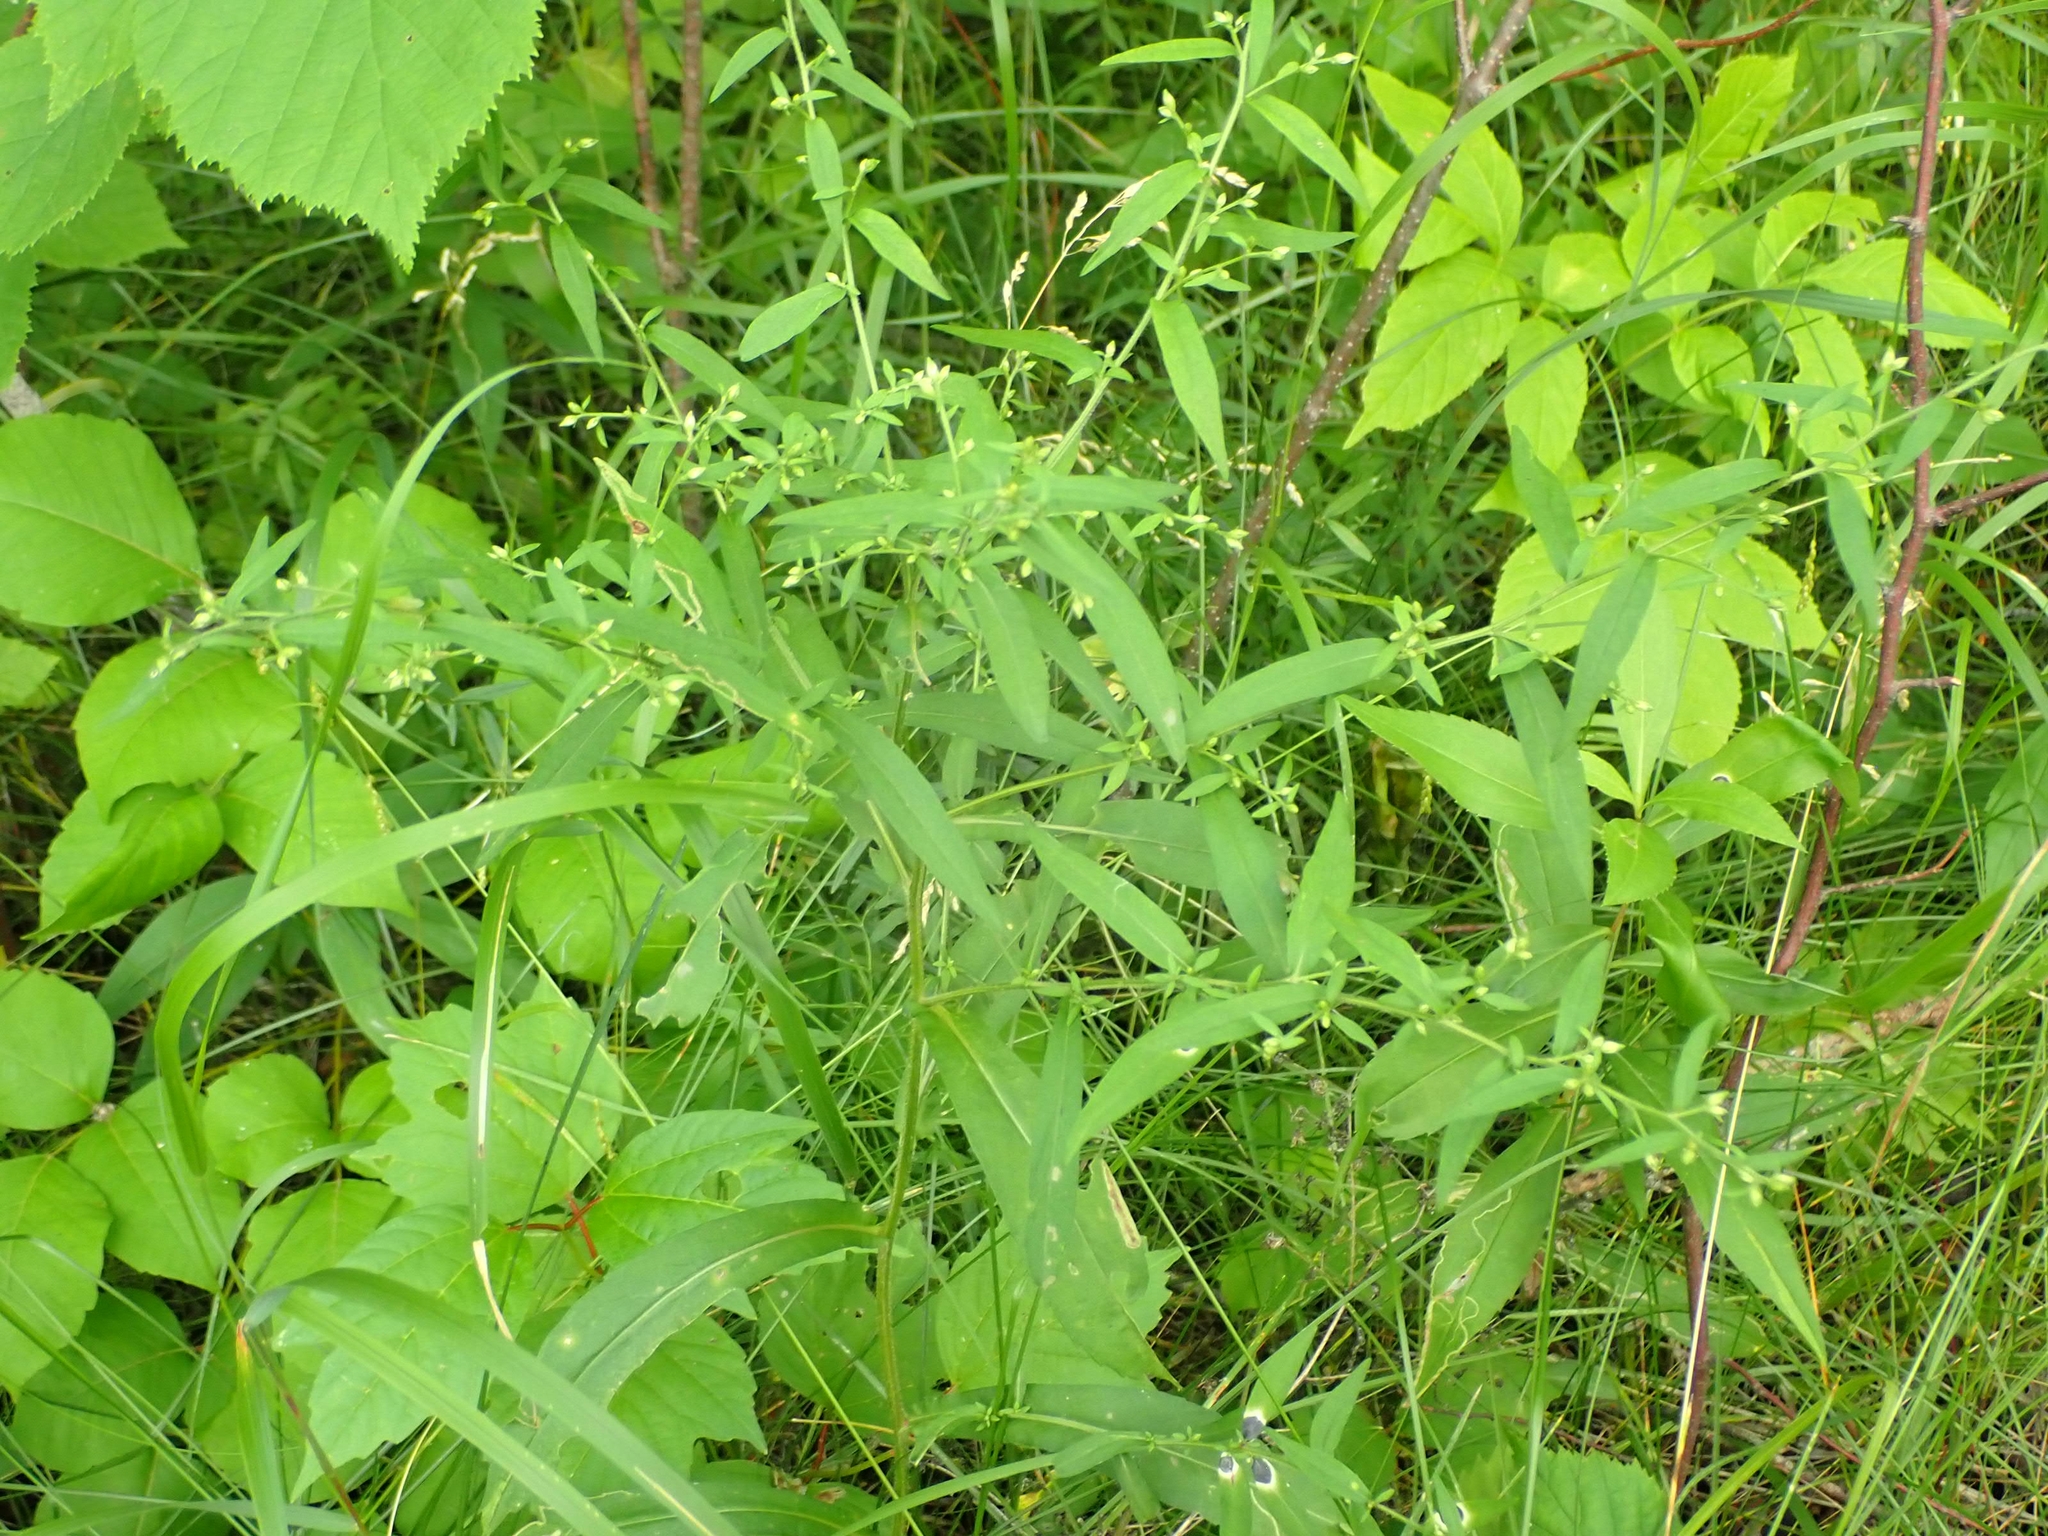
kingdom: Plantae
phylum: Tracheophyta
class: Magnoliopsida
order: Asterales
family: Asteraceae
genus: Symphyotrichum
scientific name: Symphyotrichum lateriflorum
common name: Calico aster
